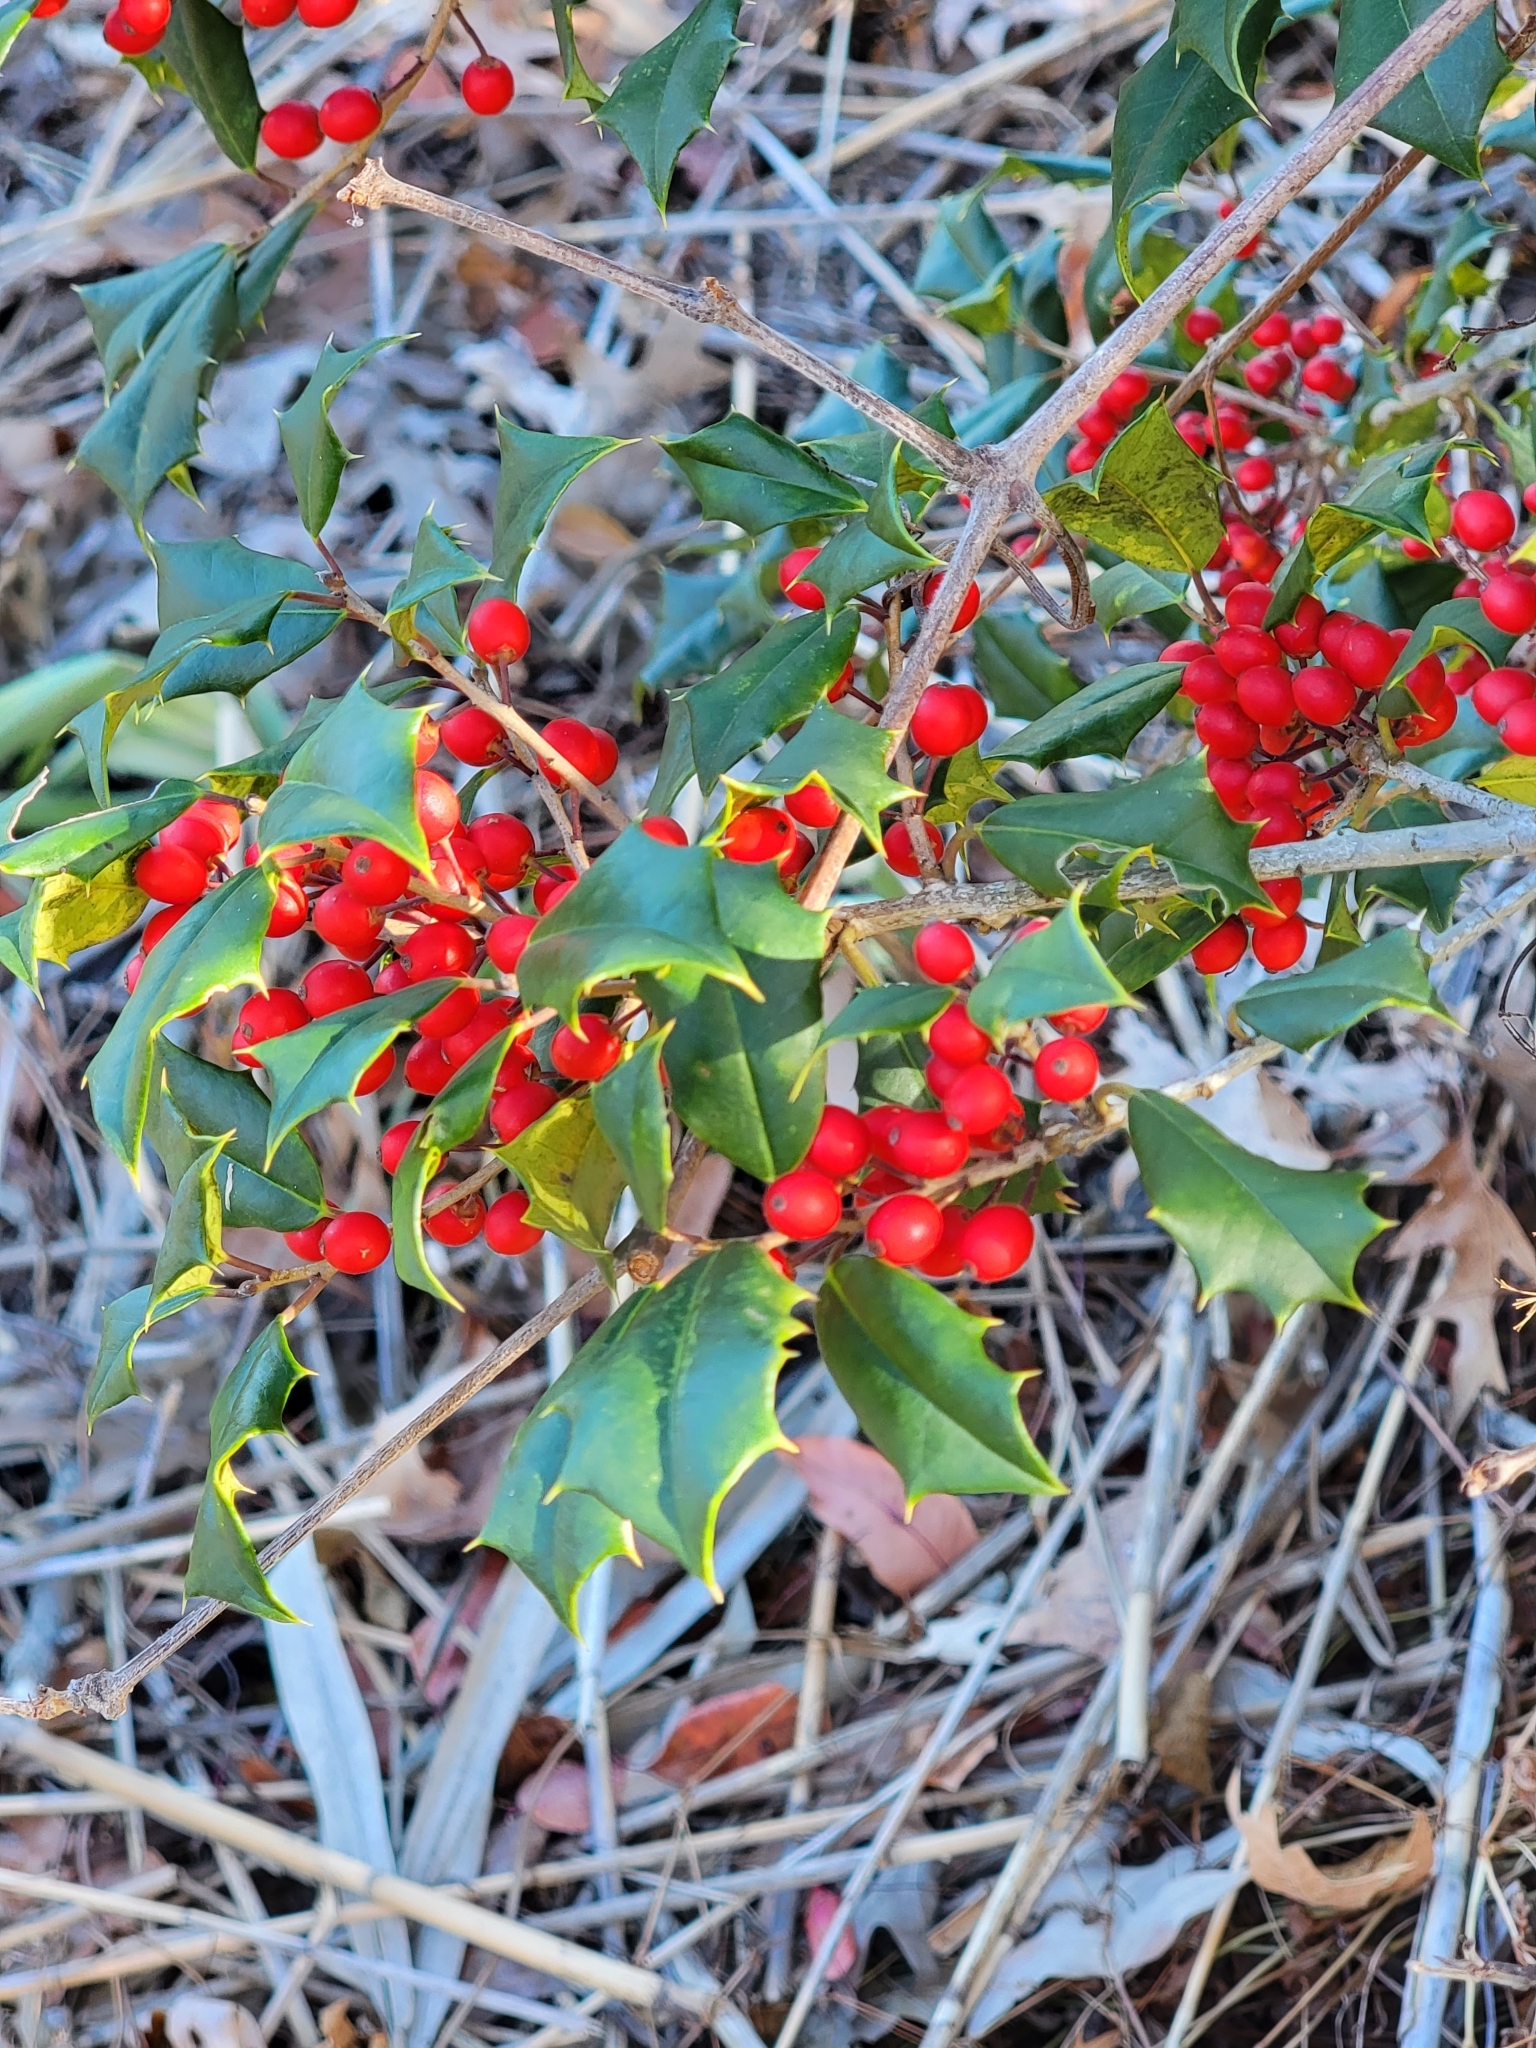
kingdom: Plantae
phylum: Tracheophyta
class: Magnoliopsida
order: Aquifoliales
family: Aquifoliaceae
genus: Ilex
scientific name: Ilex opaca
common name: American holly
